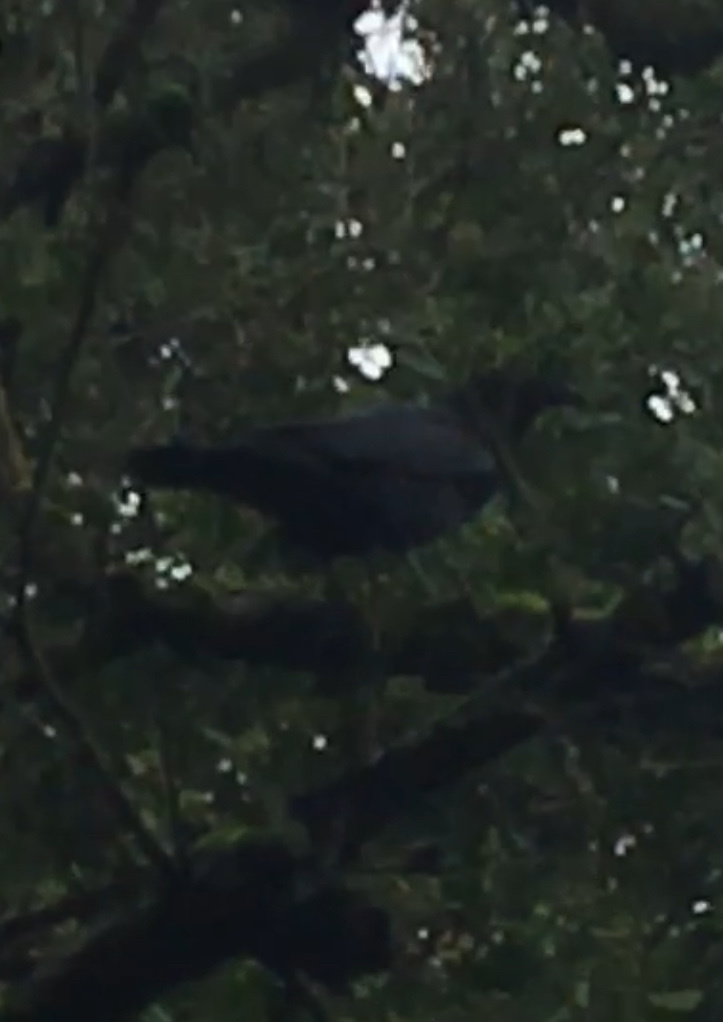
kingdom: Animalia
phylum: Chordata
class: Aves
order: Passeriformes
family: Corvidae
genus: Corvus
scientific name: Corvus corax
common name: Common raven
